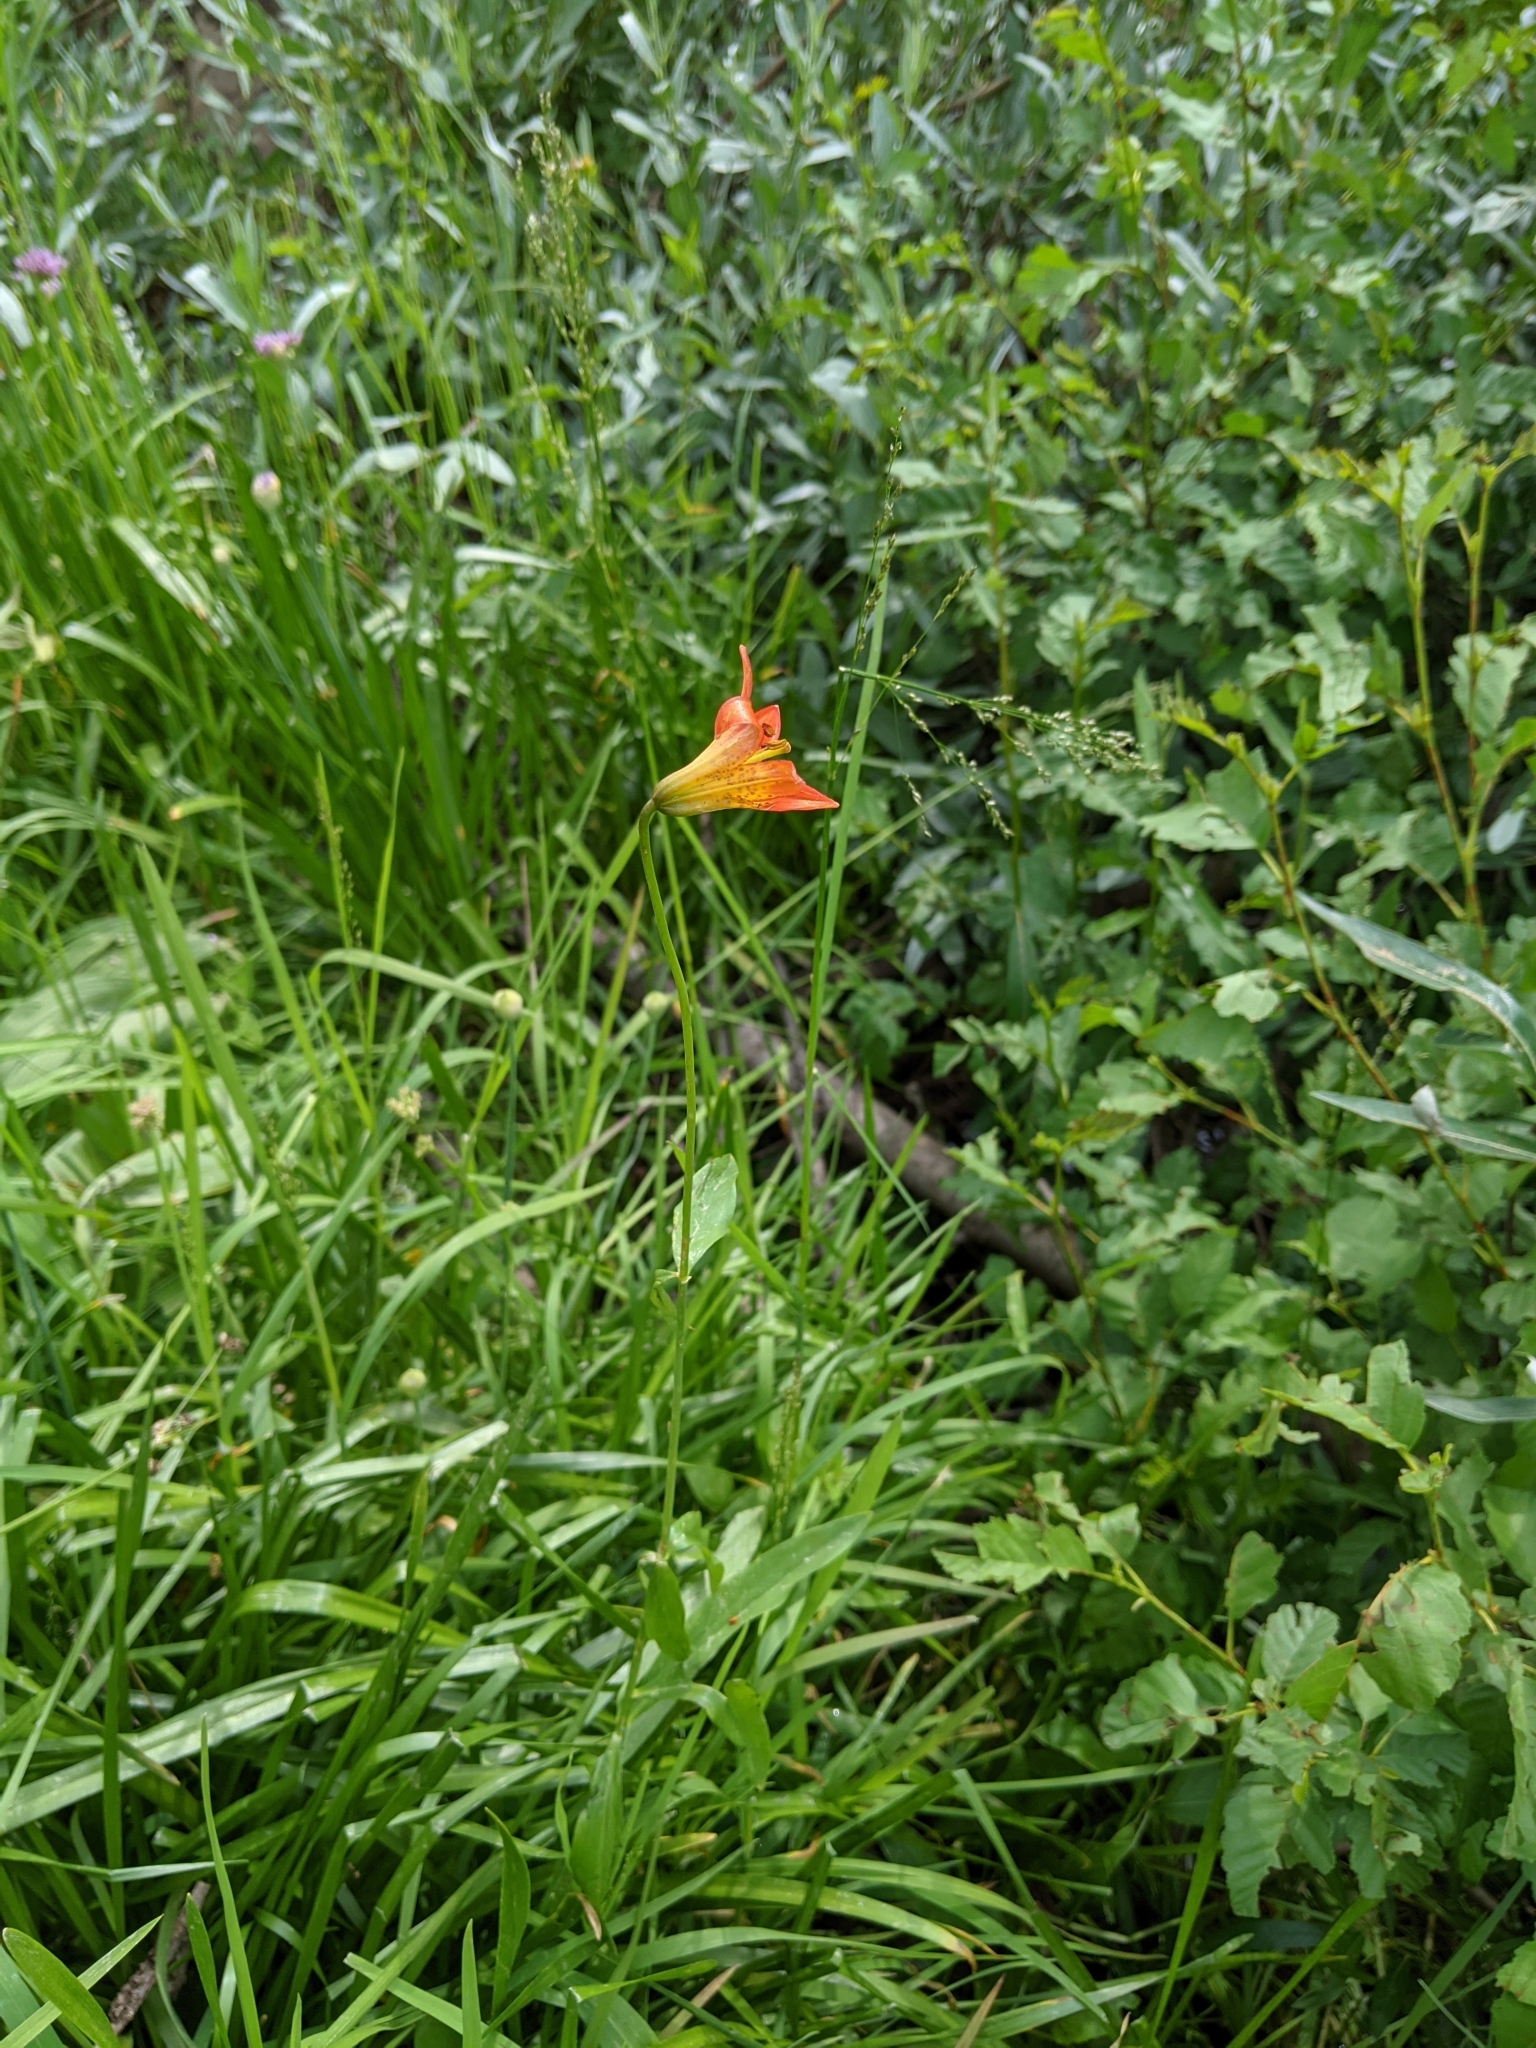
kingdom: Plantae
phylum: Tracheophyta
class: Liliopsida
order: Liliales
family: Liliaceae
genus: Lilium
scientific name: Lilium parvum
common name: Alpine lily
